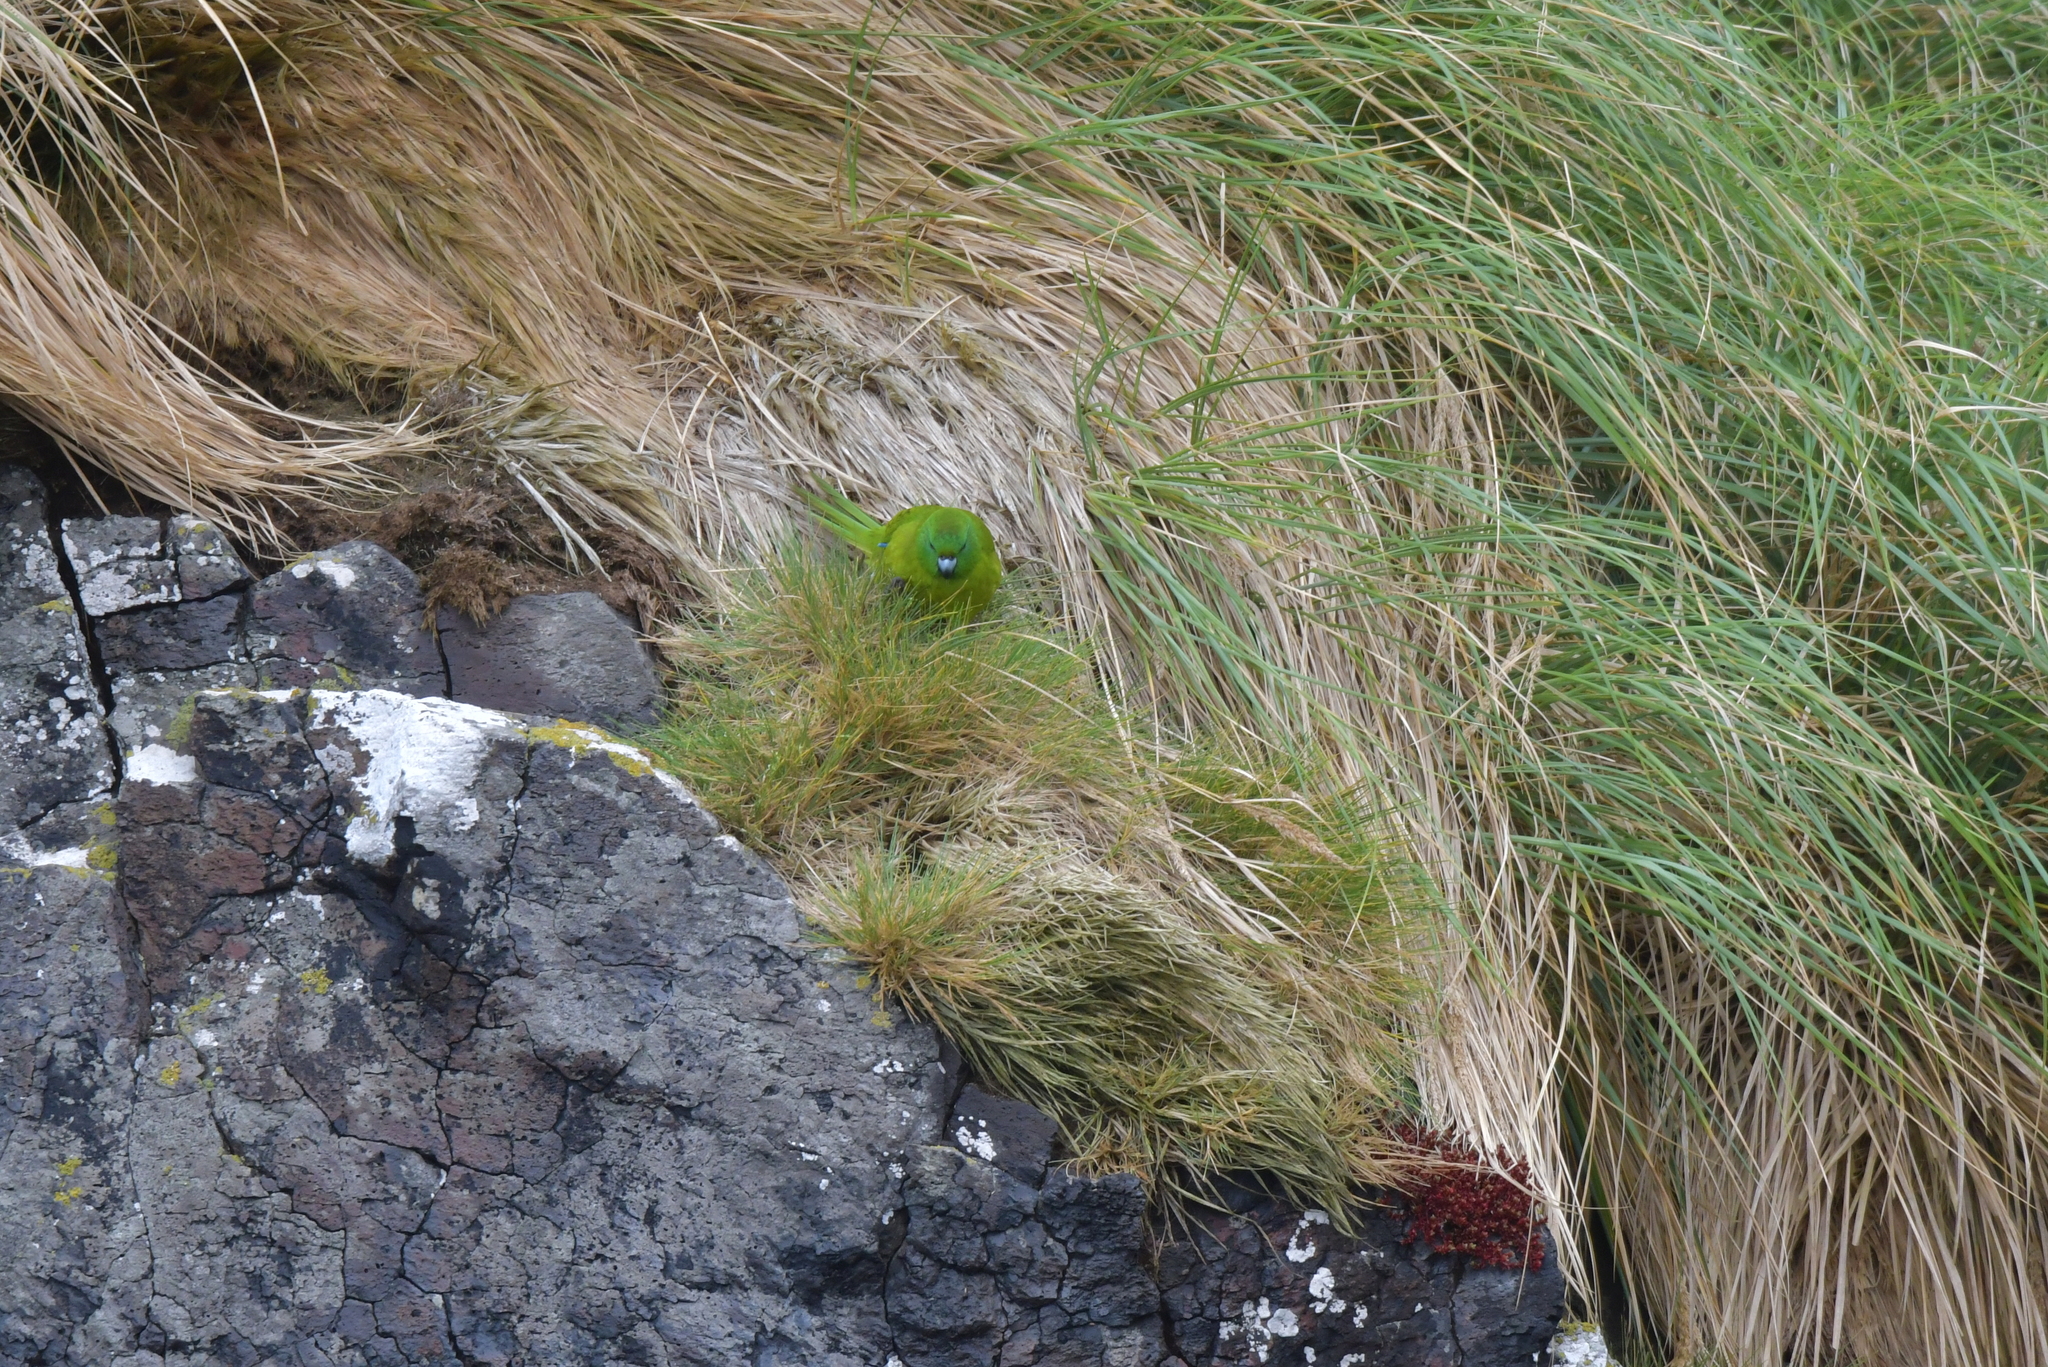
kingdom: Animalia
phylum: Chordata
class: Aves
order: Psittaciformes
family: Psittacidae
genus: Cyanoramphus
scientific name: Cyanoramphus unicolor
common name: Antipodes parakeet
